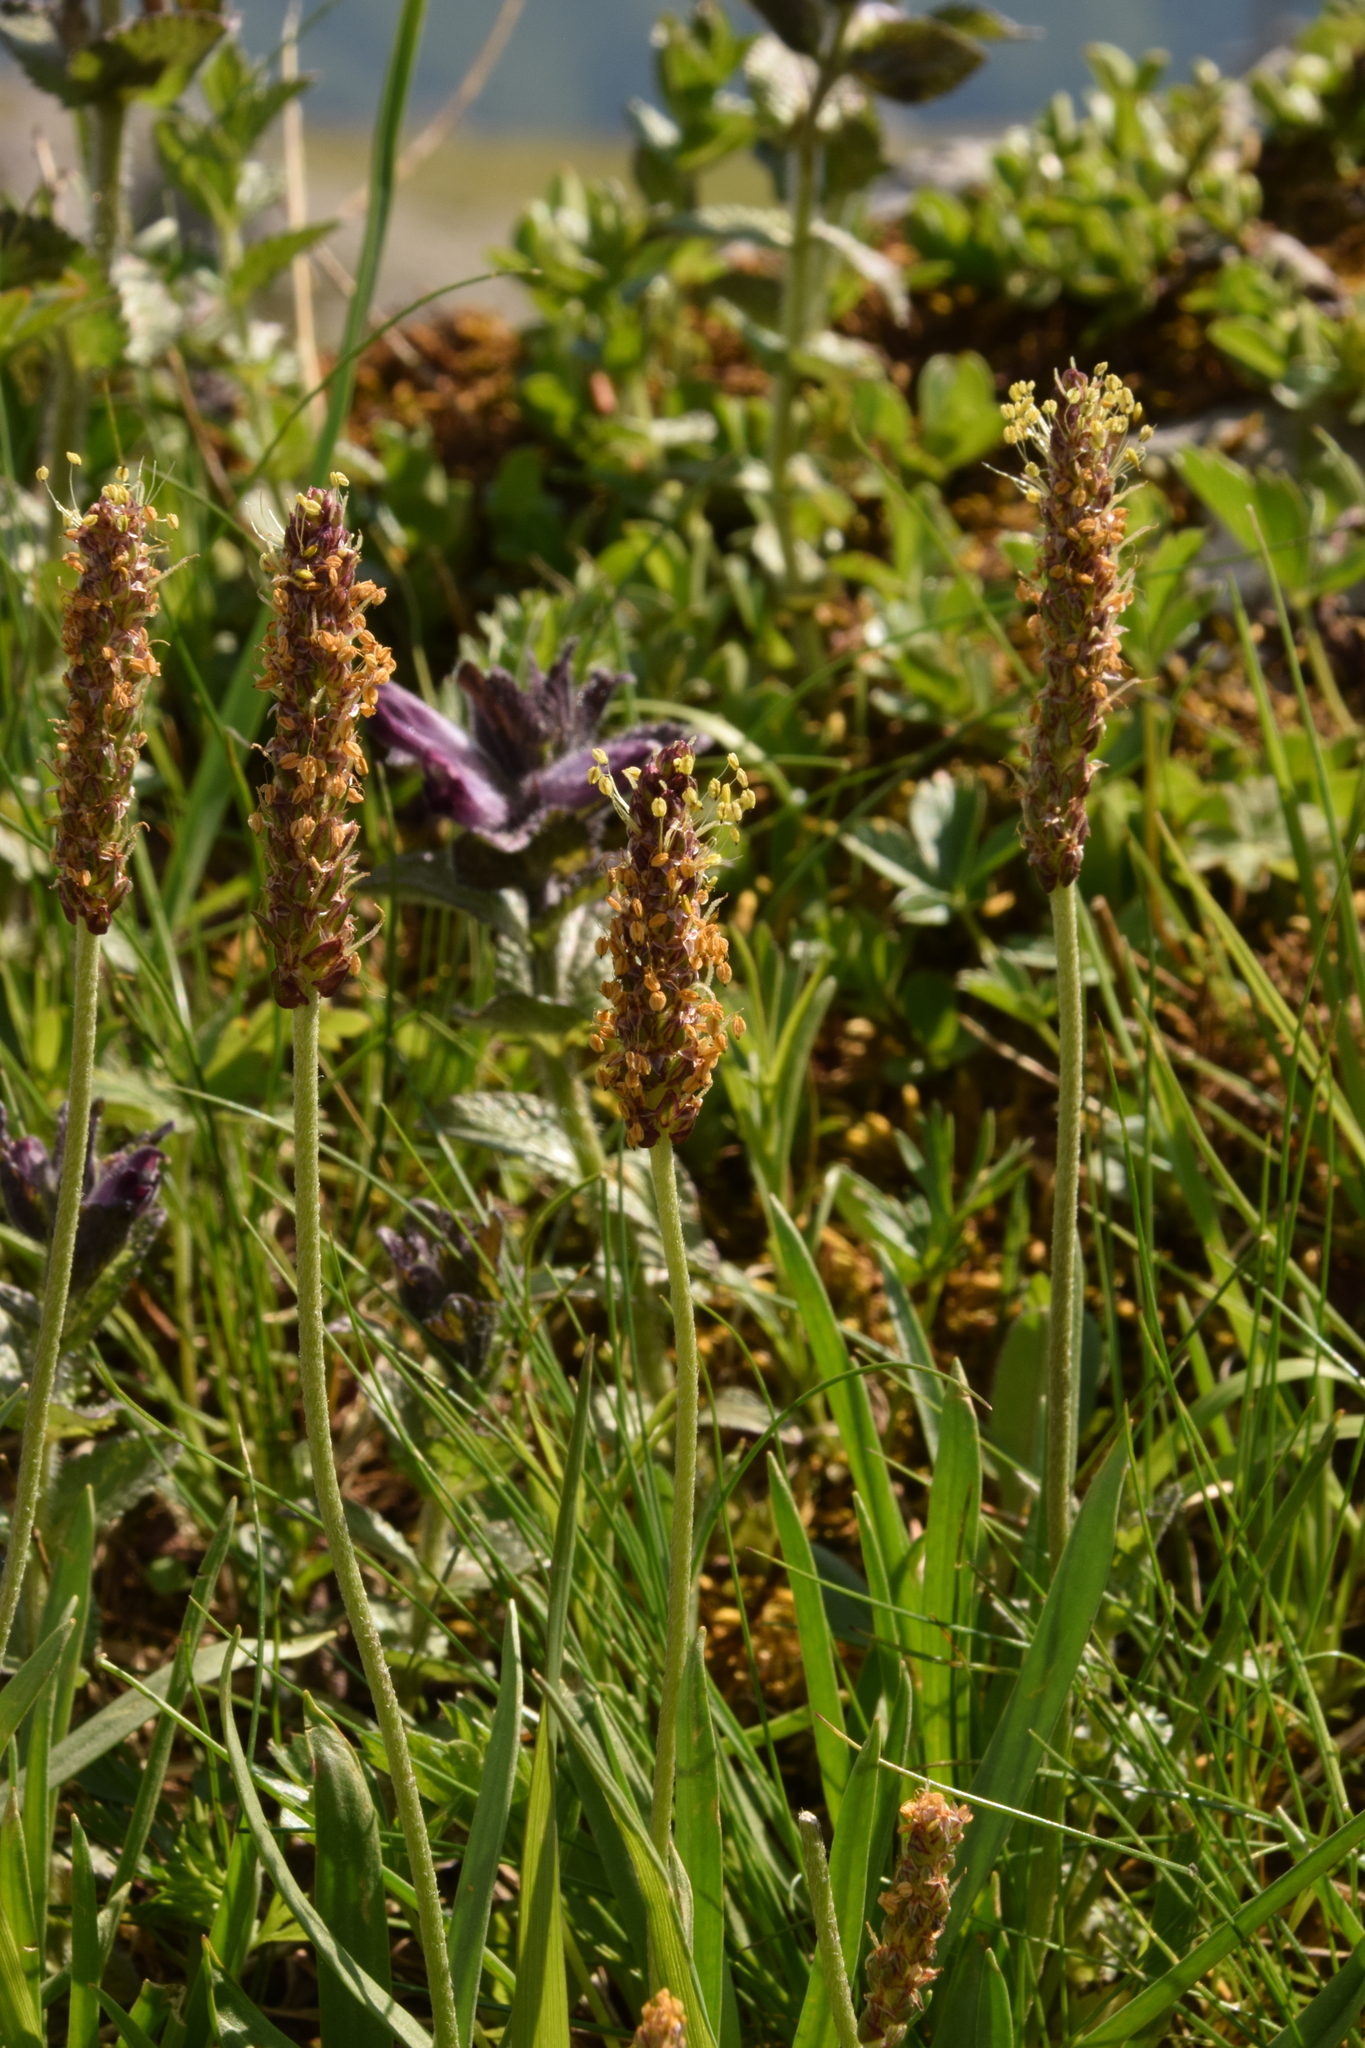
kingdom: Plantae
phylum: Tracheophyta
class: Magnoliopsida
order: Lamiales
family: Plantaginaceae
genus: Plantago
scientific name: Plantago alpina
